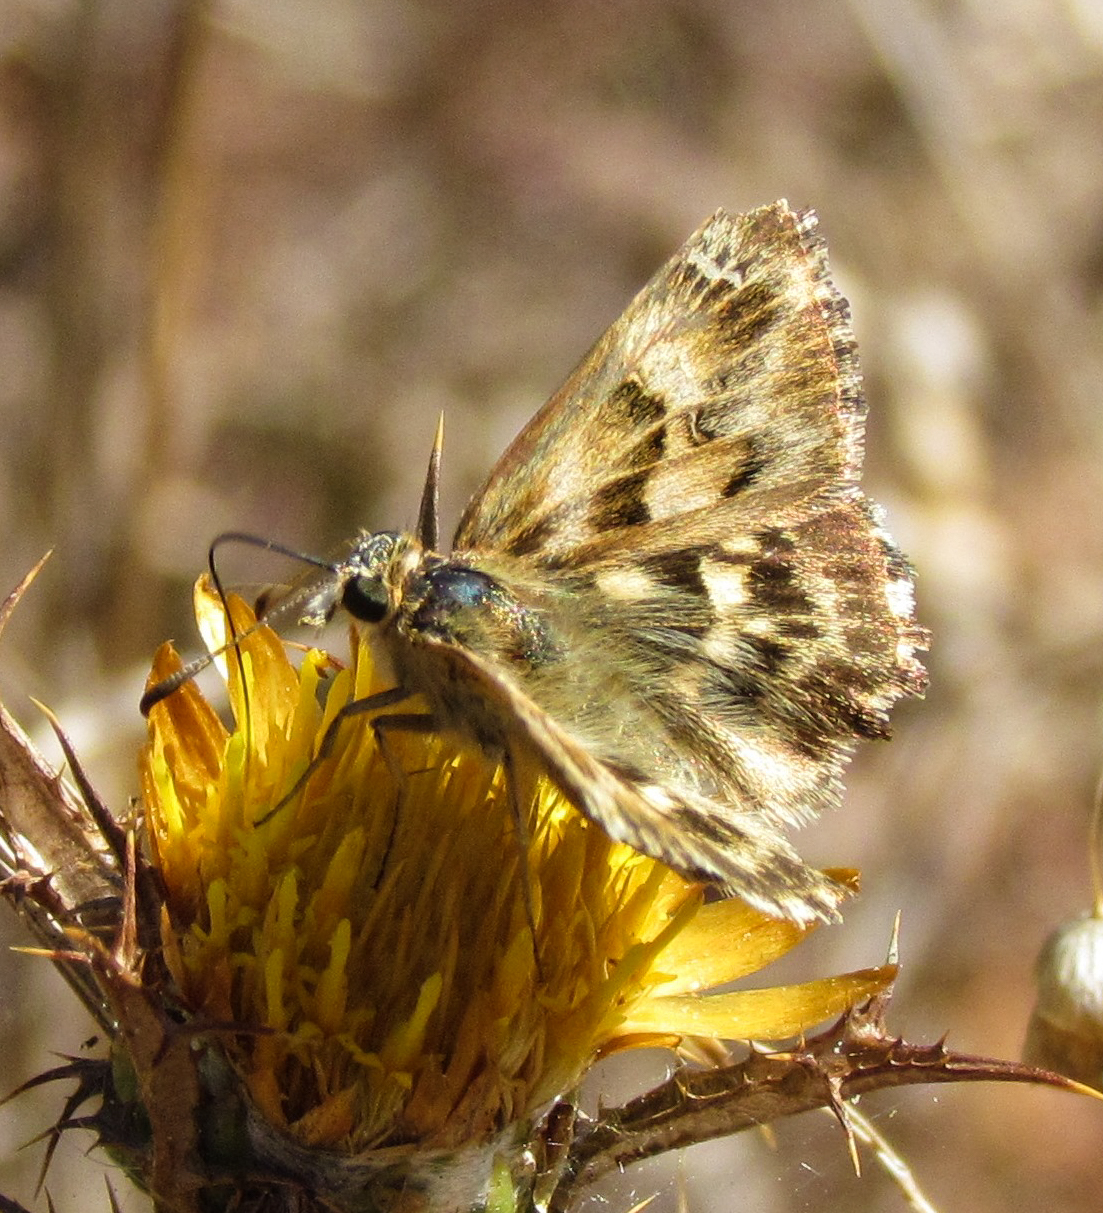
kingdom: Animalia
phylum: Arthropoda
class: Insecta
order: Lepidoptera
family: Hesperiidae
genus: Carcharodus
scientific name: Carcharodus alceae
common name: Mallow skipper
